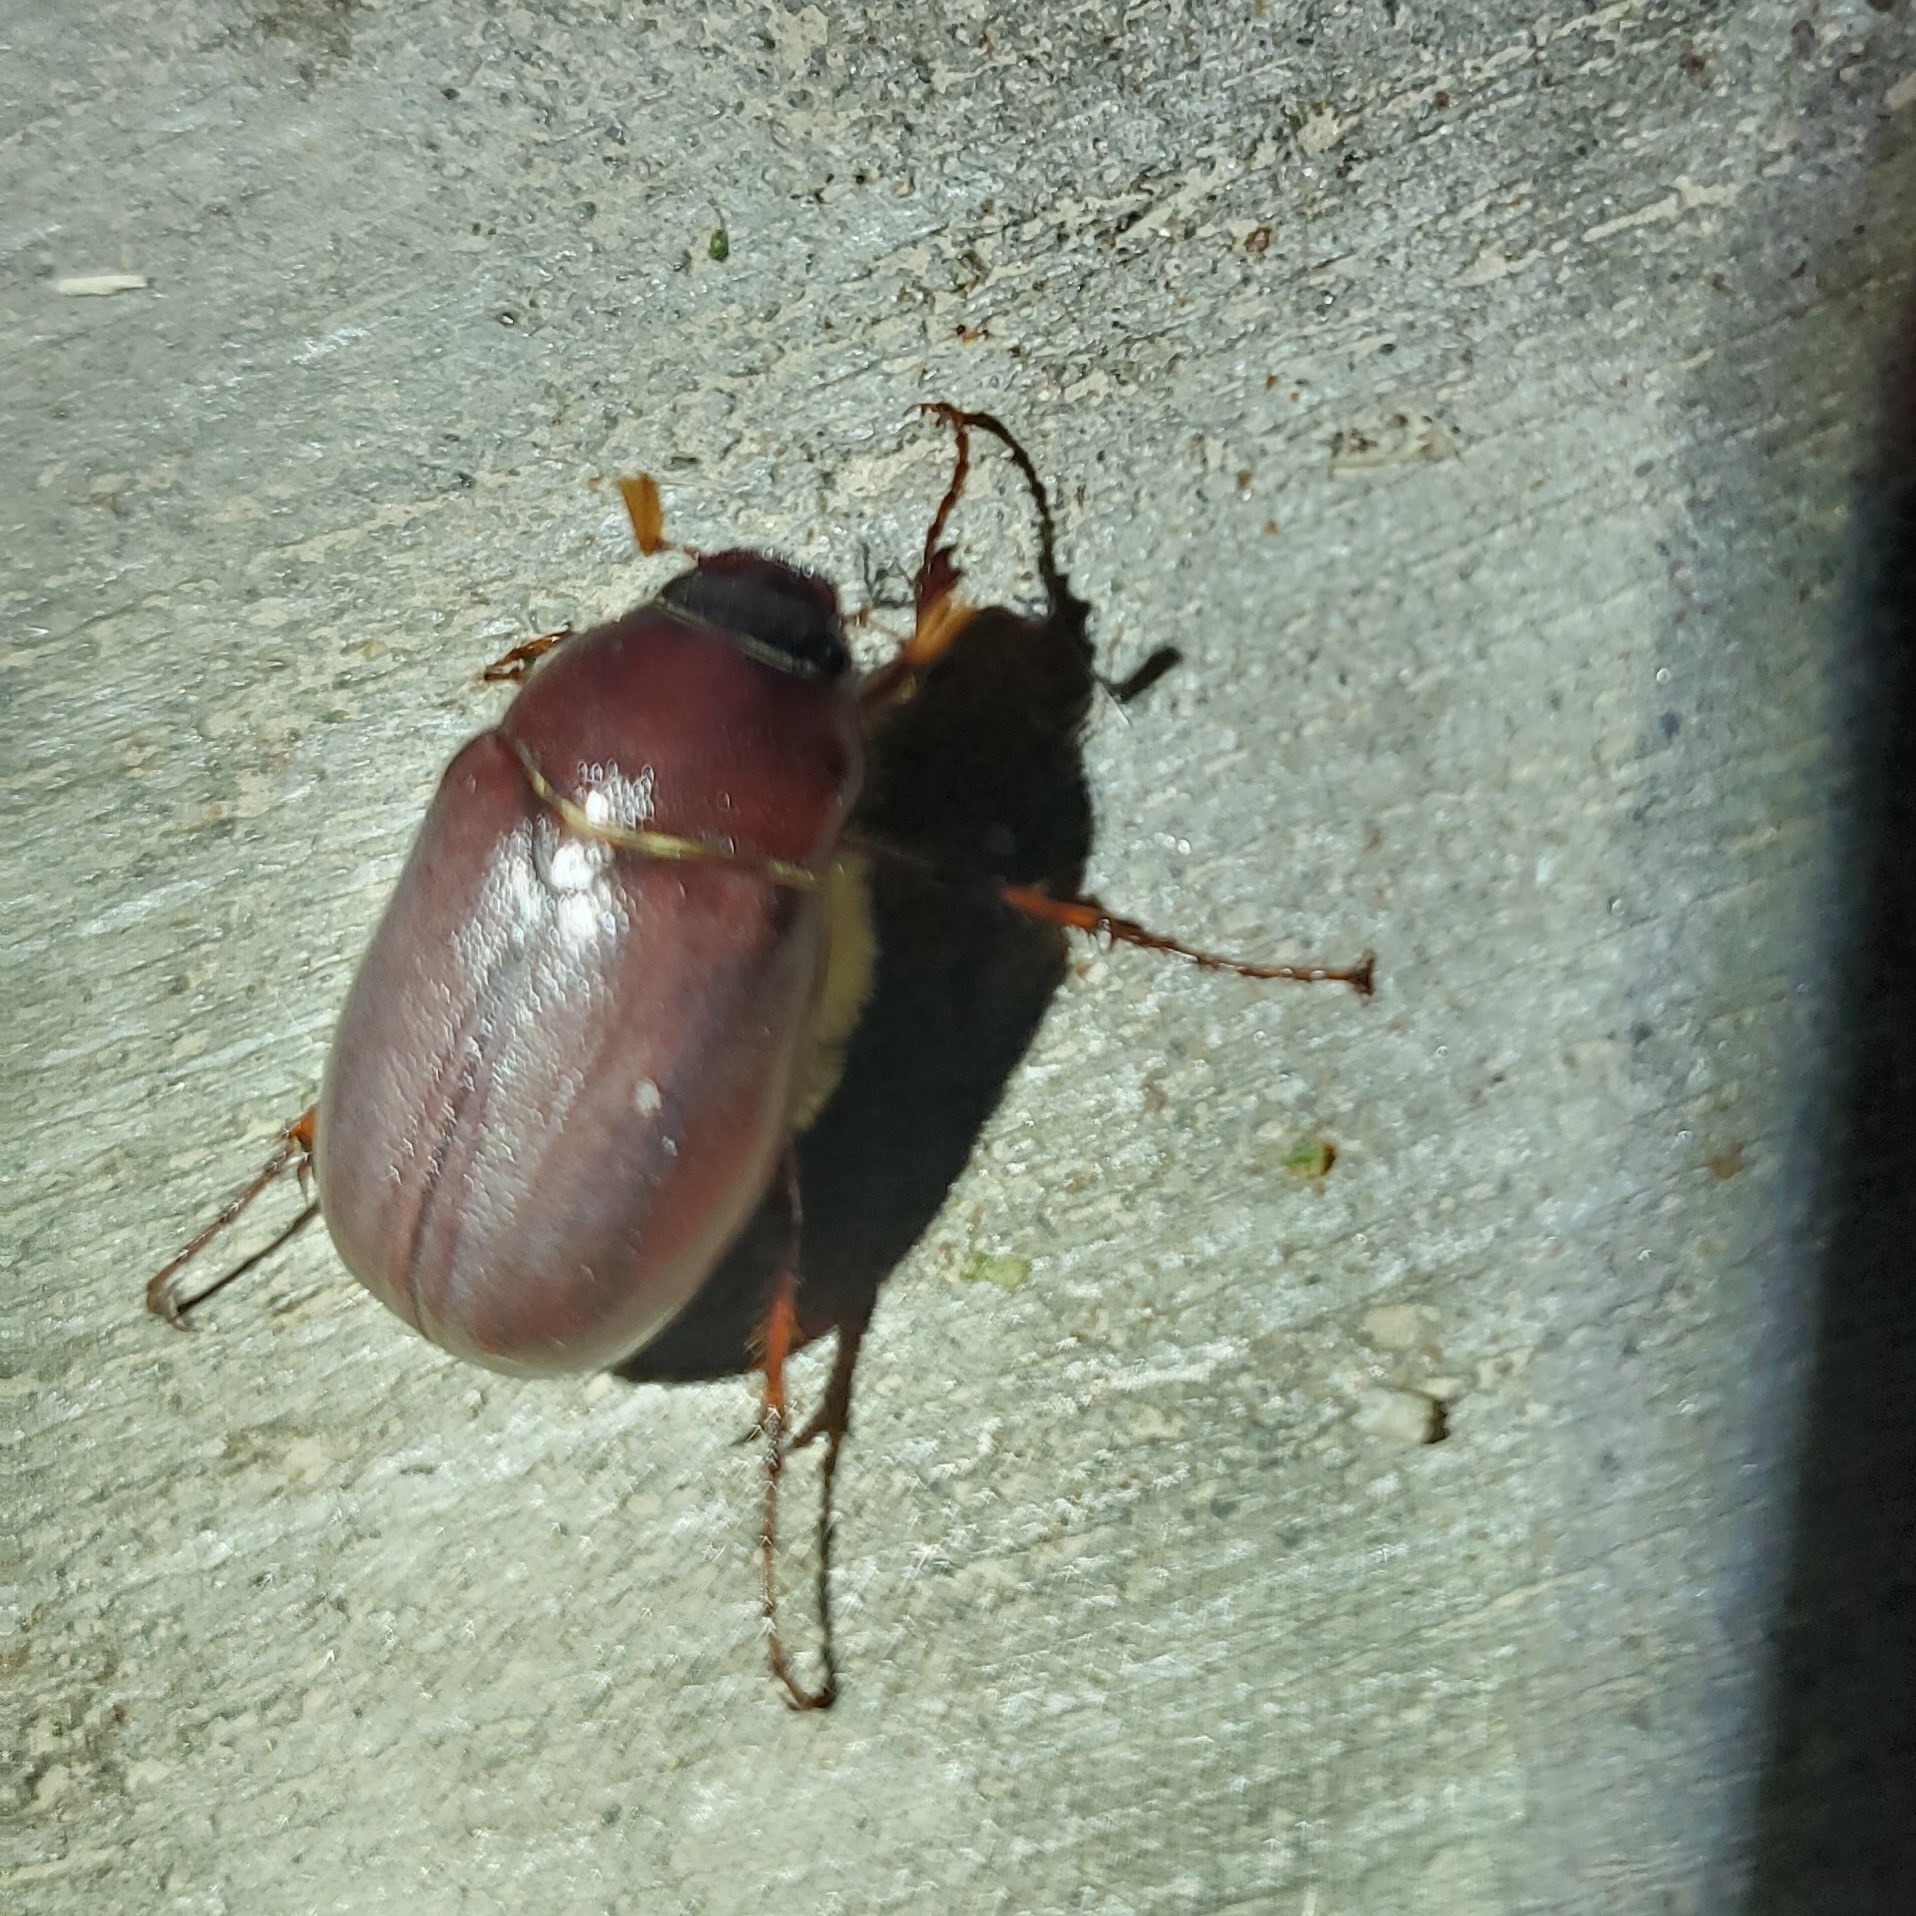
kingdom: Animalia
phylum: Arthropoda
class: Insecta
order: Coleoptera
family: Scarabaeidae
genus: Phyllophaga
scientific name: Phyllophaga crassissima
